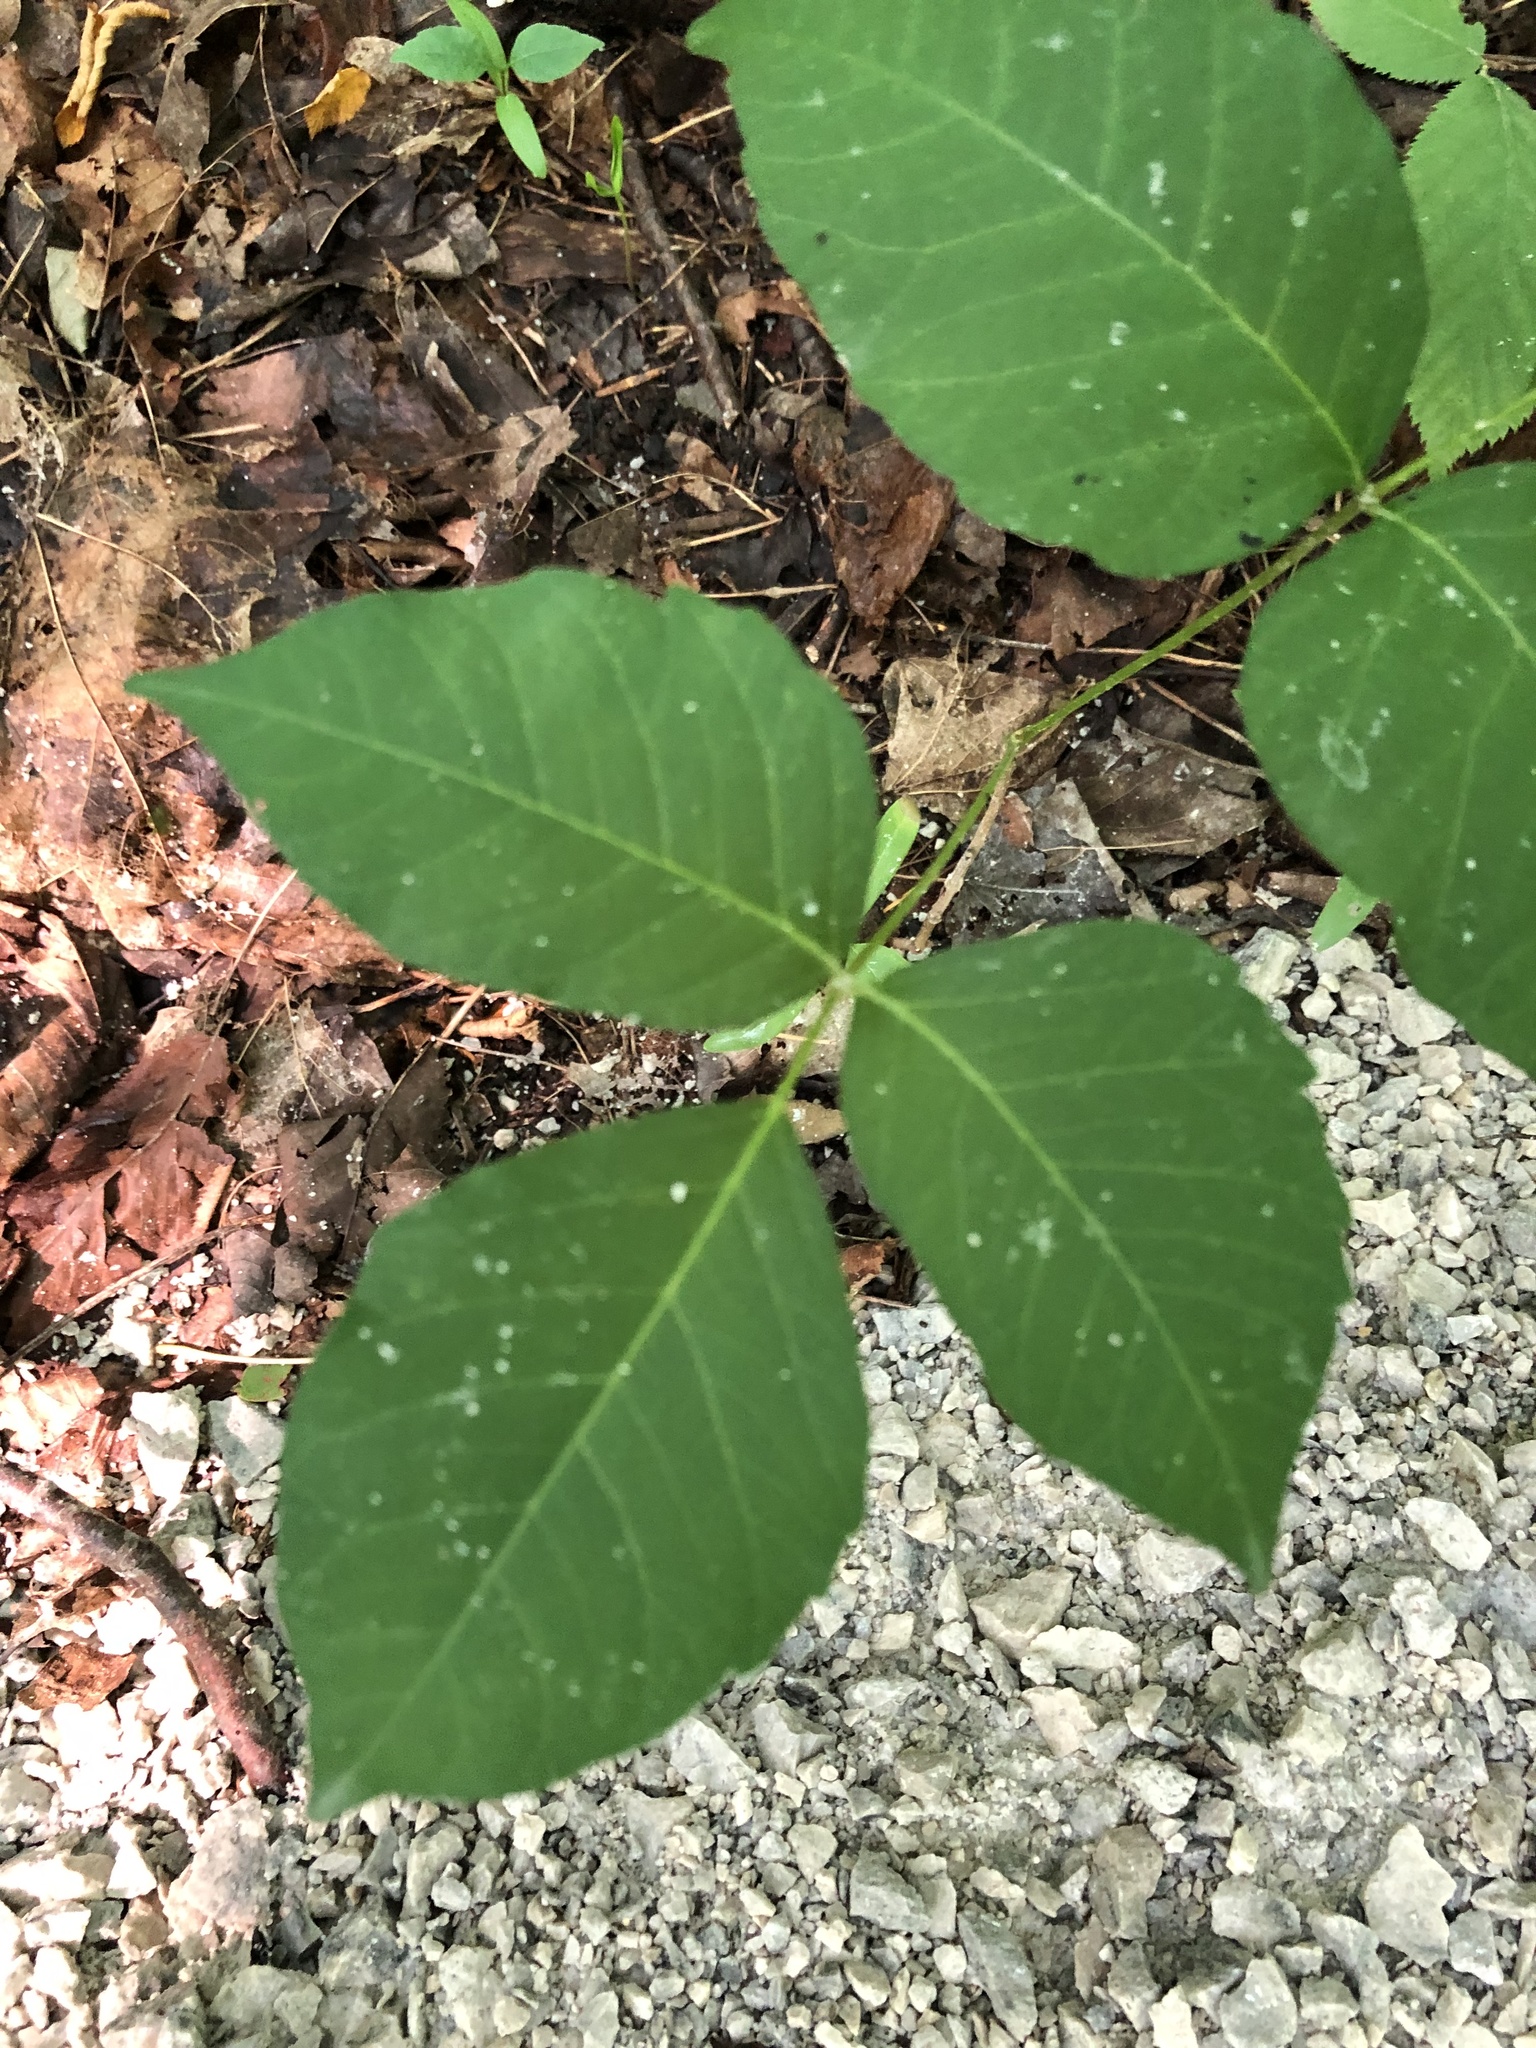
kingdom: Plantae
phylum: Tracheophyta
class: Magnoliopsida
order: Sapindales
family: Anacardiaceae
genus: Toxicodendron
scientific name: Toxicodendron rydbergii
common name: Rydberg's poison-ivy
